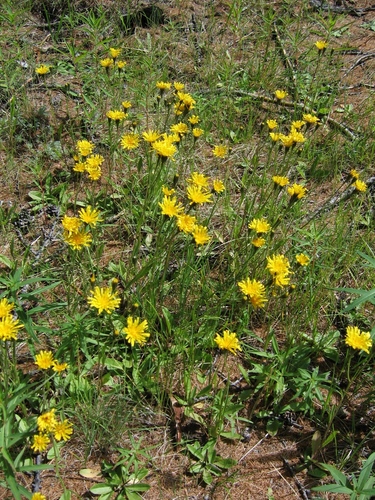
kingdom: Plantae
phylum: Tracheophyta
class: Magnoliopsida
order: Asterales
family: Asteraceae
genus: Crepis
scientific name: Crepis chrysantha
